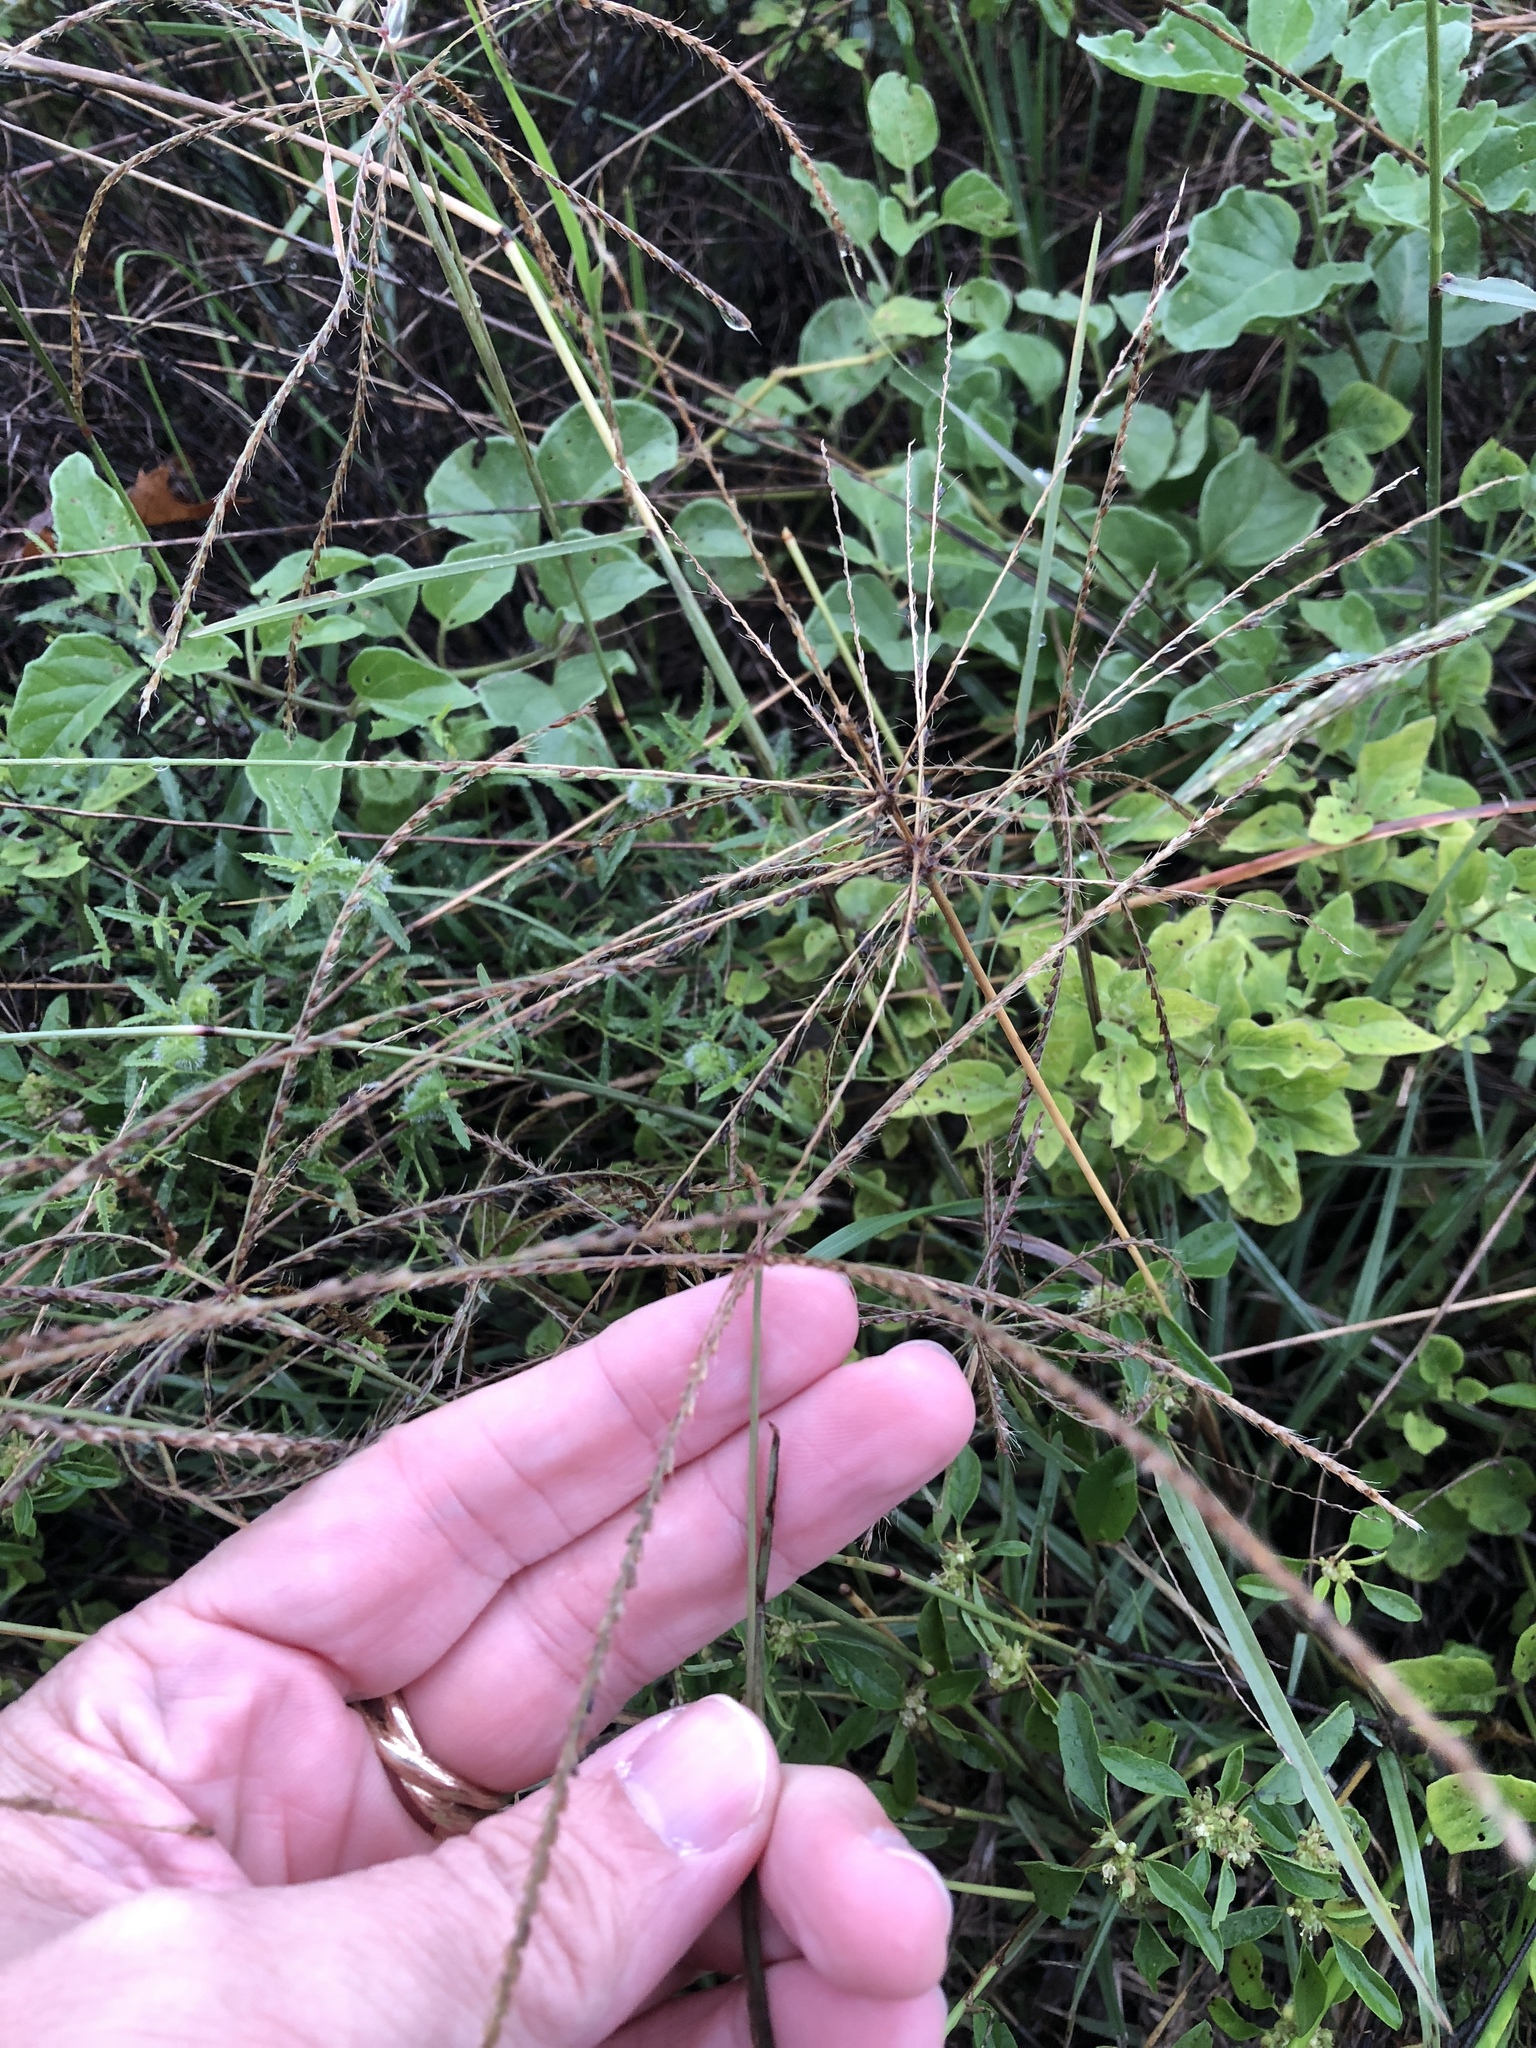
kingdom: Plantae
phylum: Tracheophyta
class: Liliopsida
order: Poales
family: Poaceae
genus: Chloris
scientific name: Chloris verticillata
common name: Tumble windmill grass
